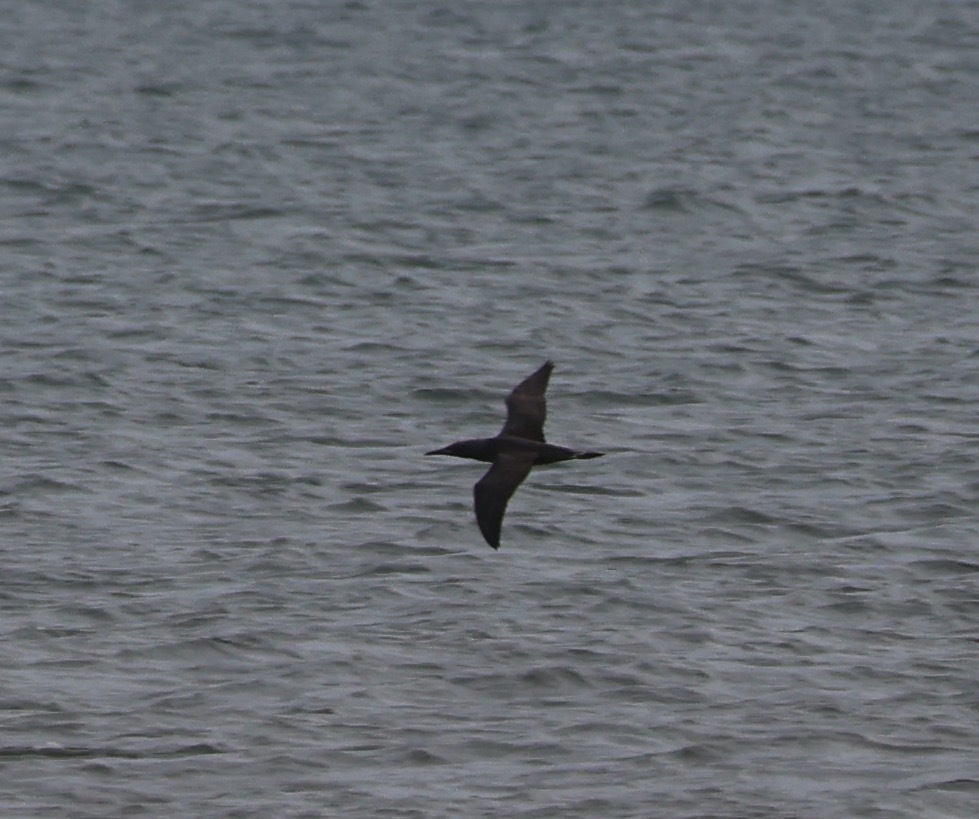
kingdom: Animalia
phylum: Chordata
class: Aves
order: Suliformes
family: Sulidae
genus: Morus
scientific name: Morus bassanus
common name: Northern gannet
